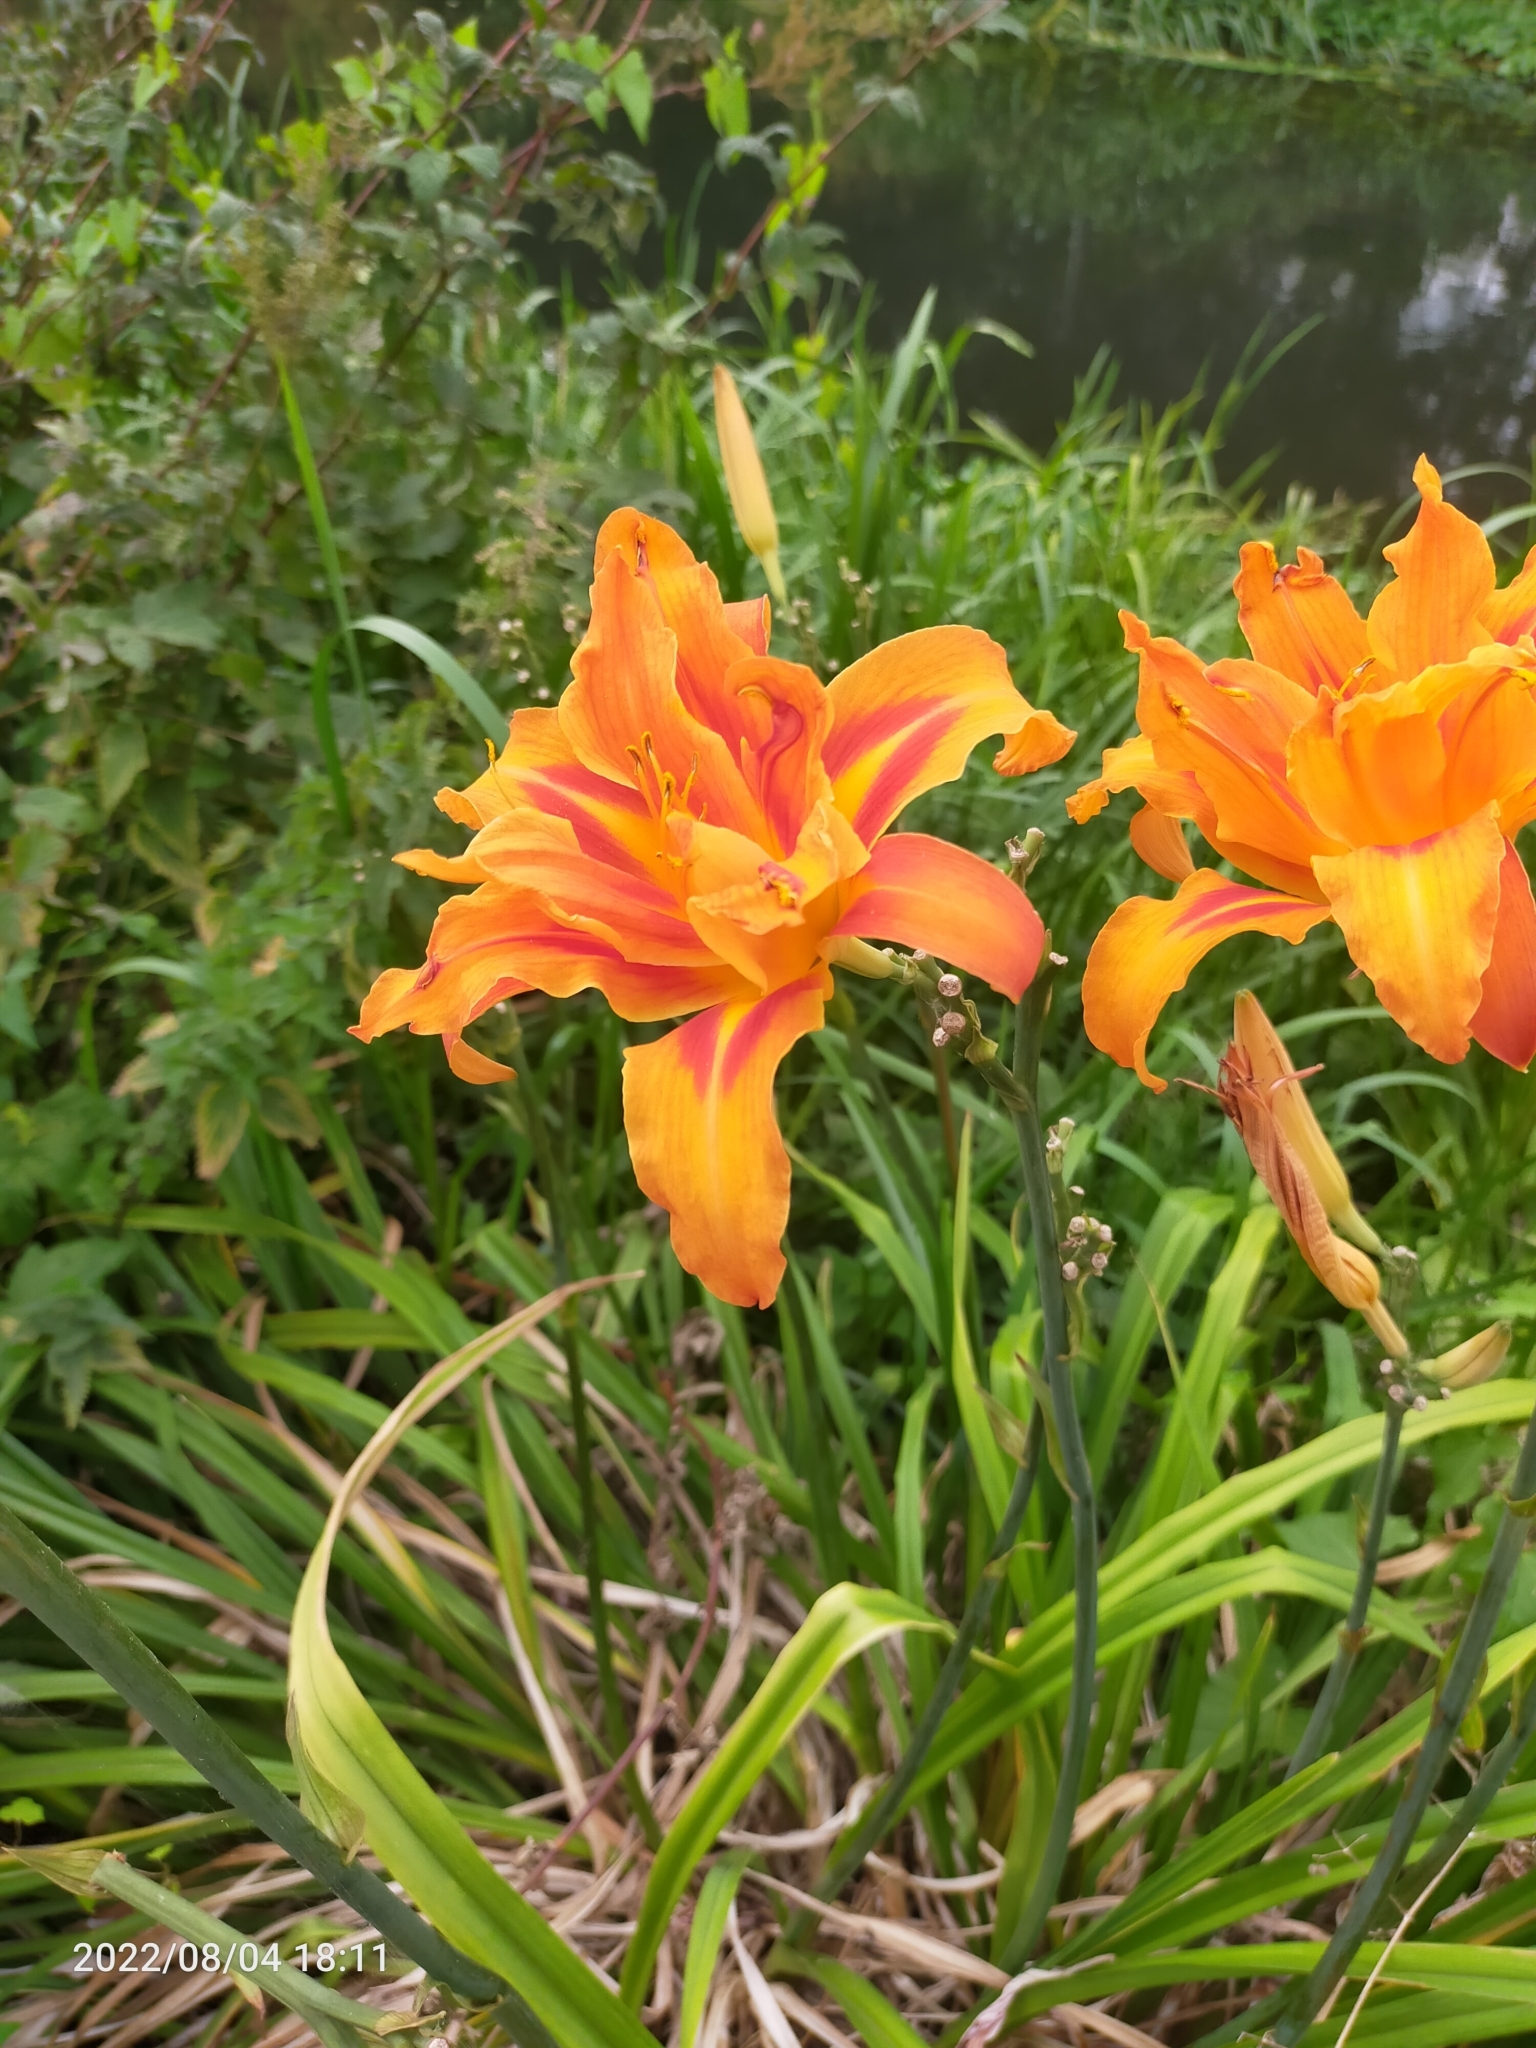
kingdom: Plantae
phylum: Tracheophyta
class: Liliopsida
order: Asparagales
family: Asphodelaceae
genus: Hemerocallis
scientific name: Hemerocallis fulva
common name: Orange day-lily
